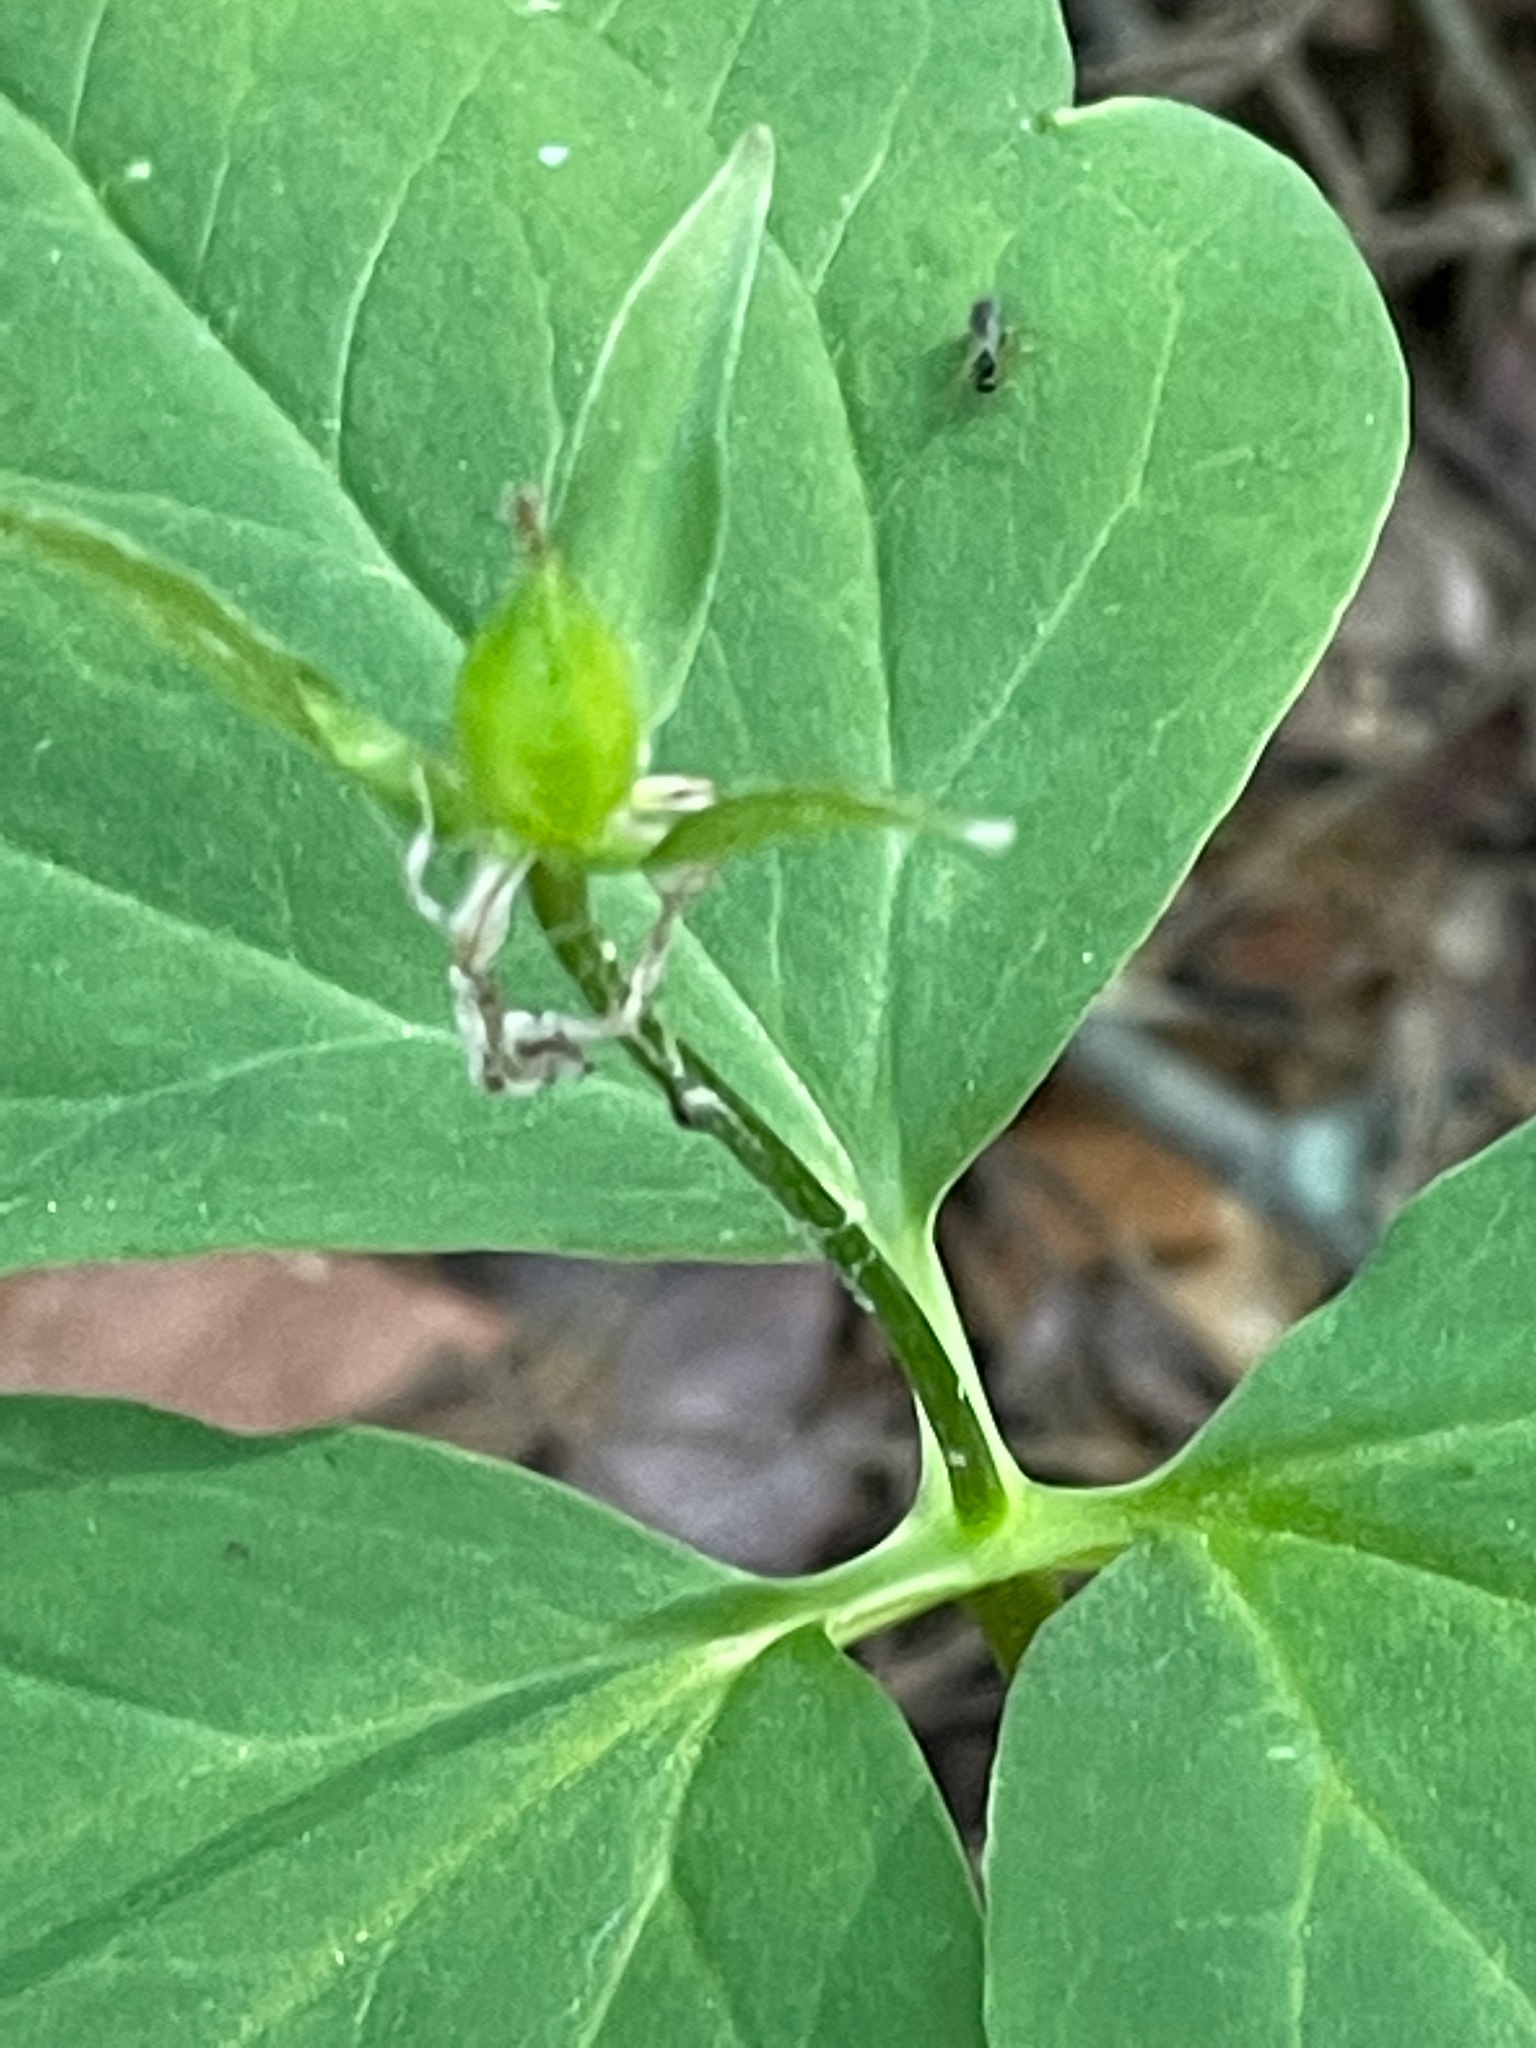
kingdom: Plantae
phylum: Tracheophyta
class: Liliopsida
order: Liliales
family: Melanthiaceae
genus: Trillium
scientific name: Trillium undulatum
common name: Paint trillium
